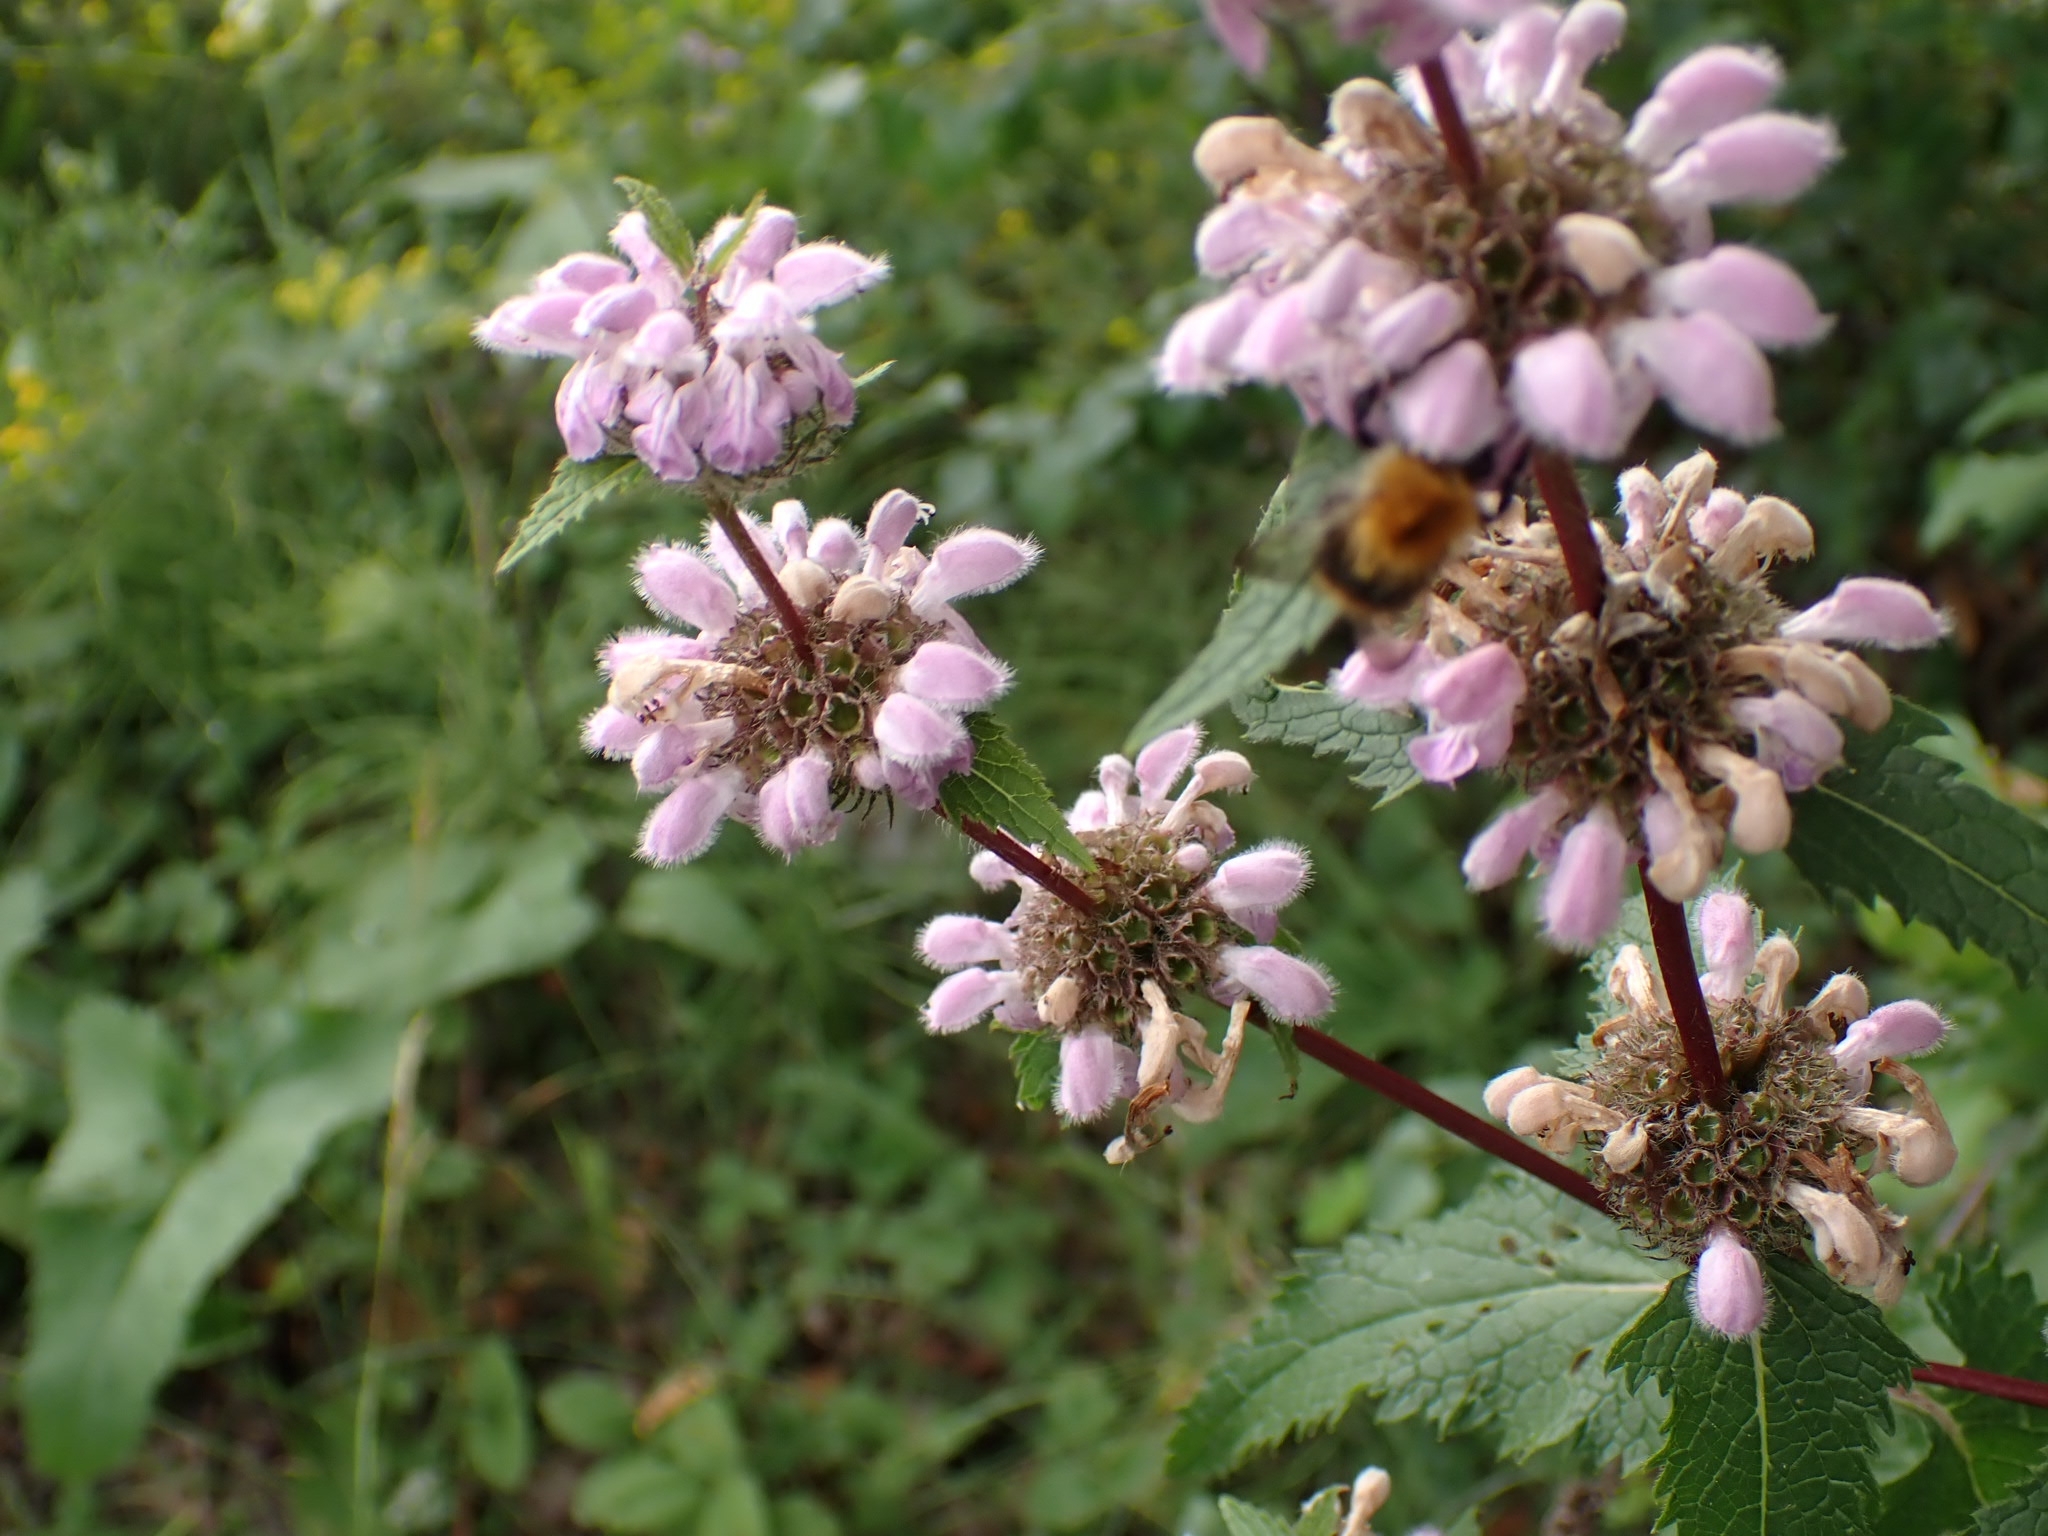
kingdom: Plantae
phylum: Tracheophyta
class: Magnoliopsida
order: Lamiales
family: Lamiaceae
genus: Phlomoides
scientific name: Phlomoides tuberosa
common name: Tuberous jerusalem sage
